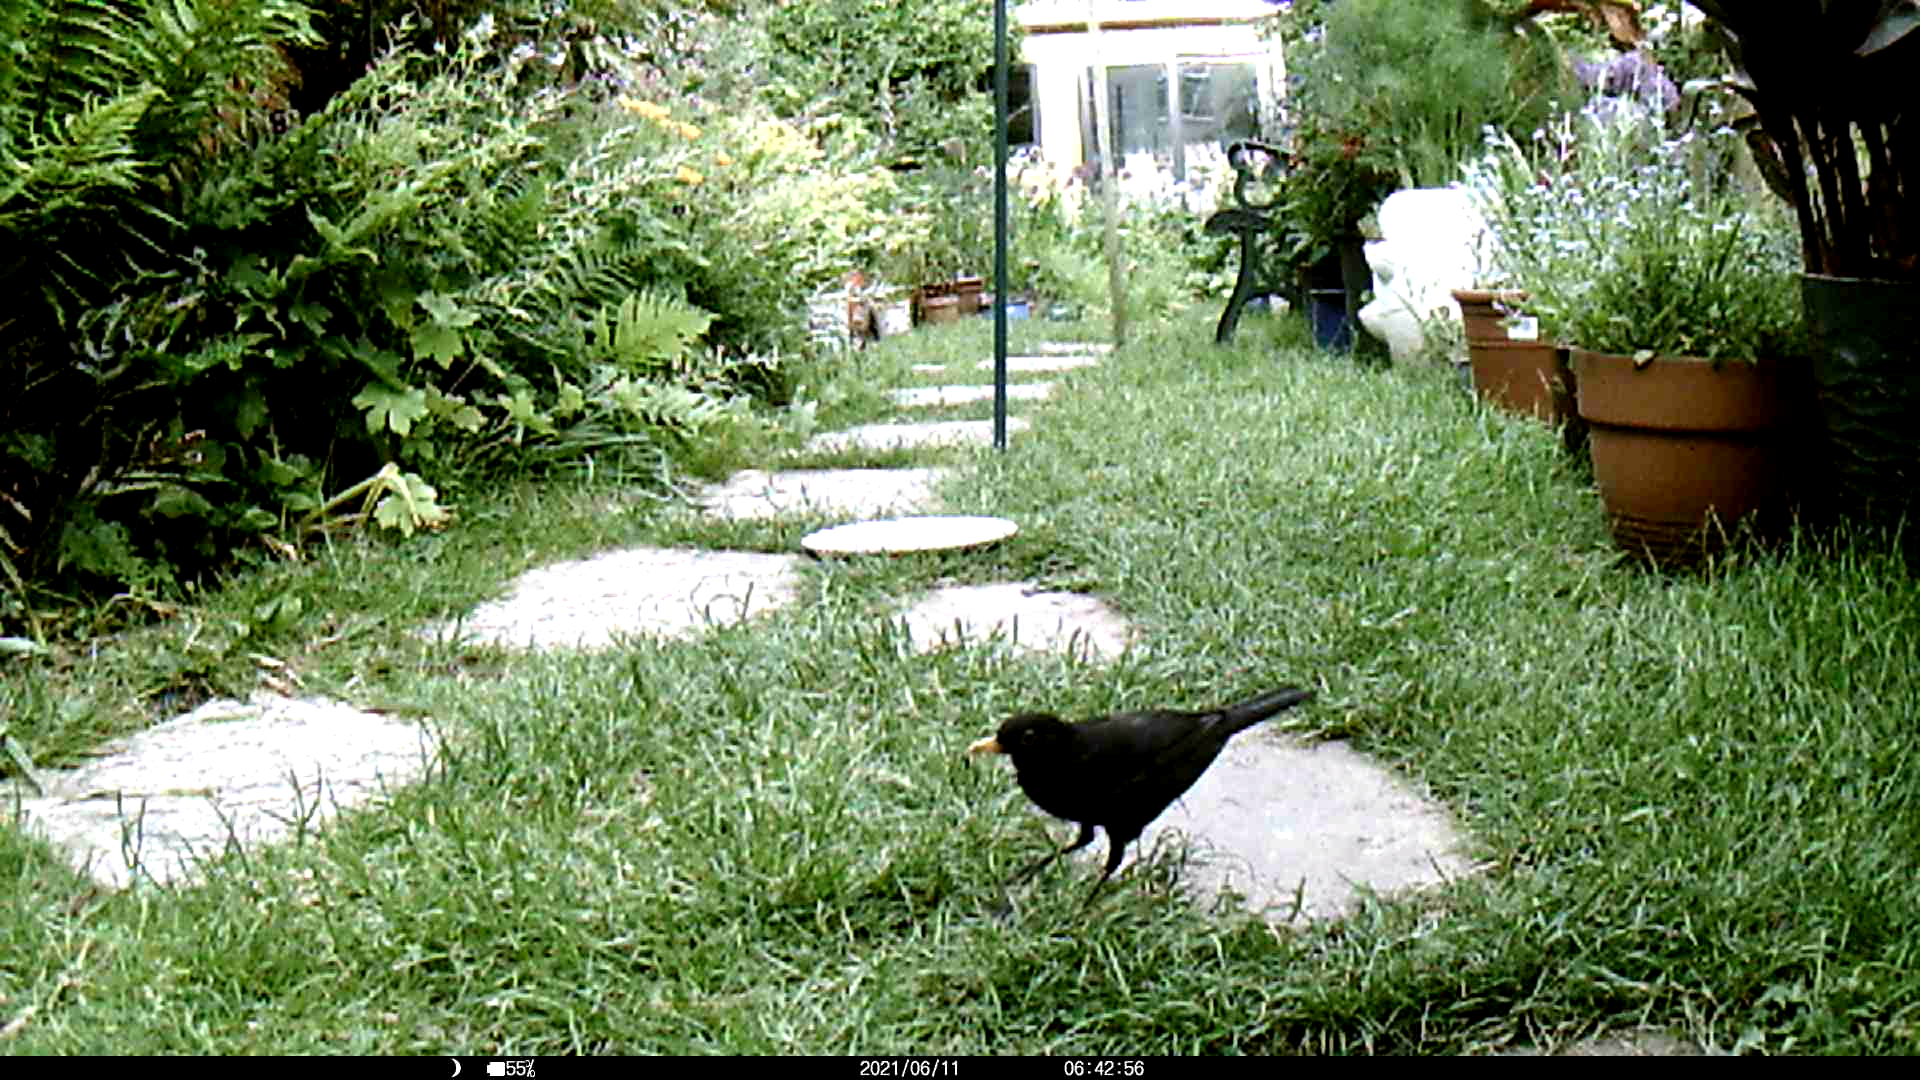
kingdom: Animalia
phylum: Chordata
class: Aves
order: Passeriformes
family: Turdidae
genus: Turdus
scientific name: Turdus merula
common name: Common blackbird
